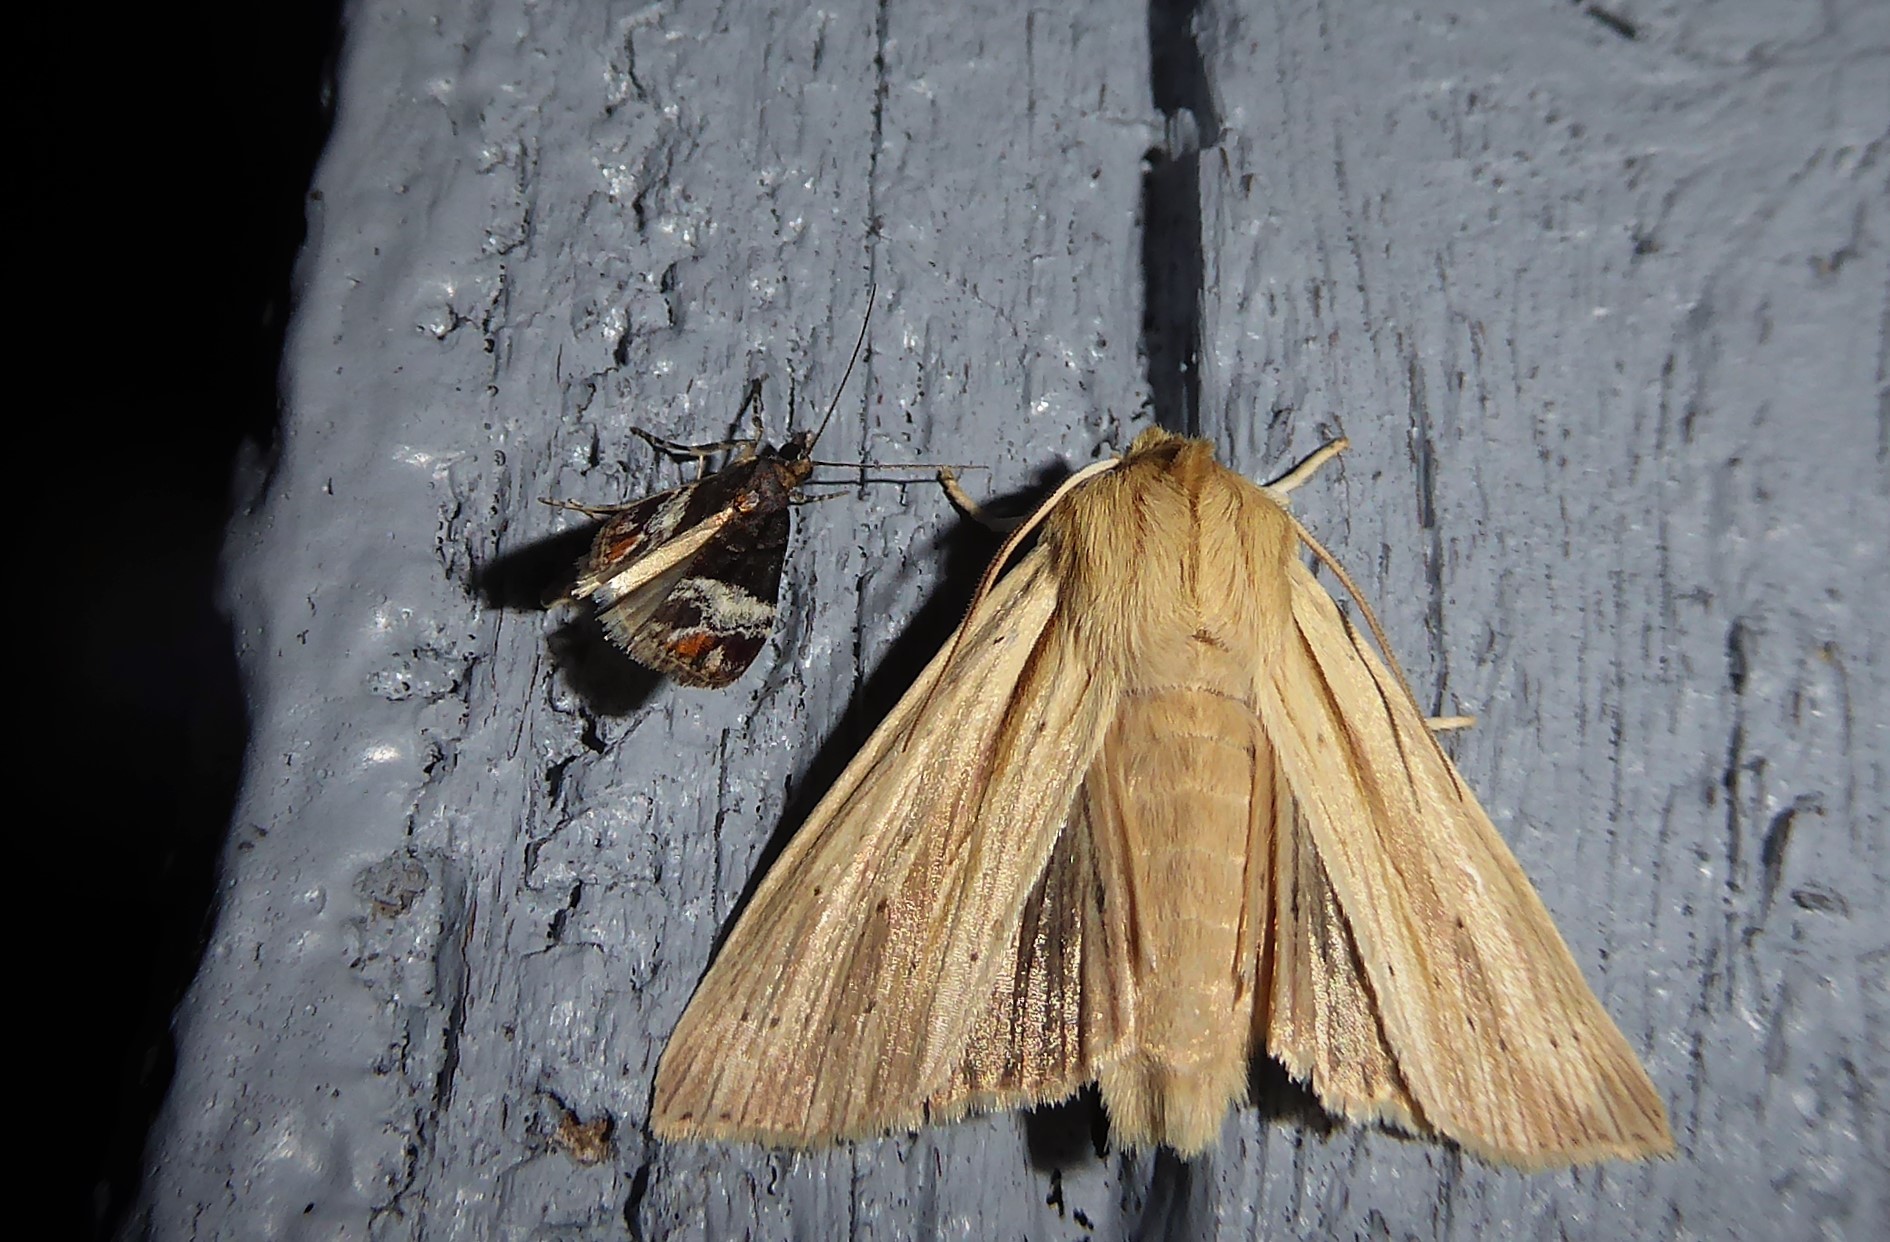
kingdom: Animalia
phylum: Arthropoda
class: Insecta
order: Lepidoptera
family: Noctuidae
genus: Ichneutica
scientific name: Ichneutica semivittata
